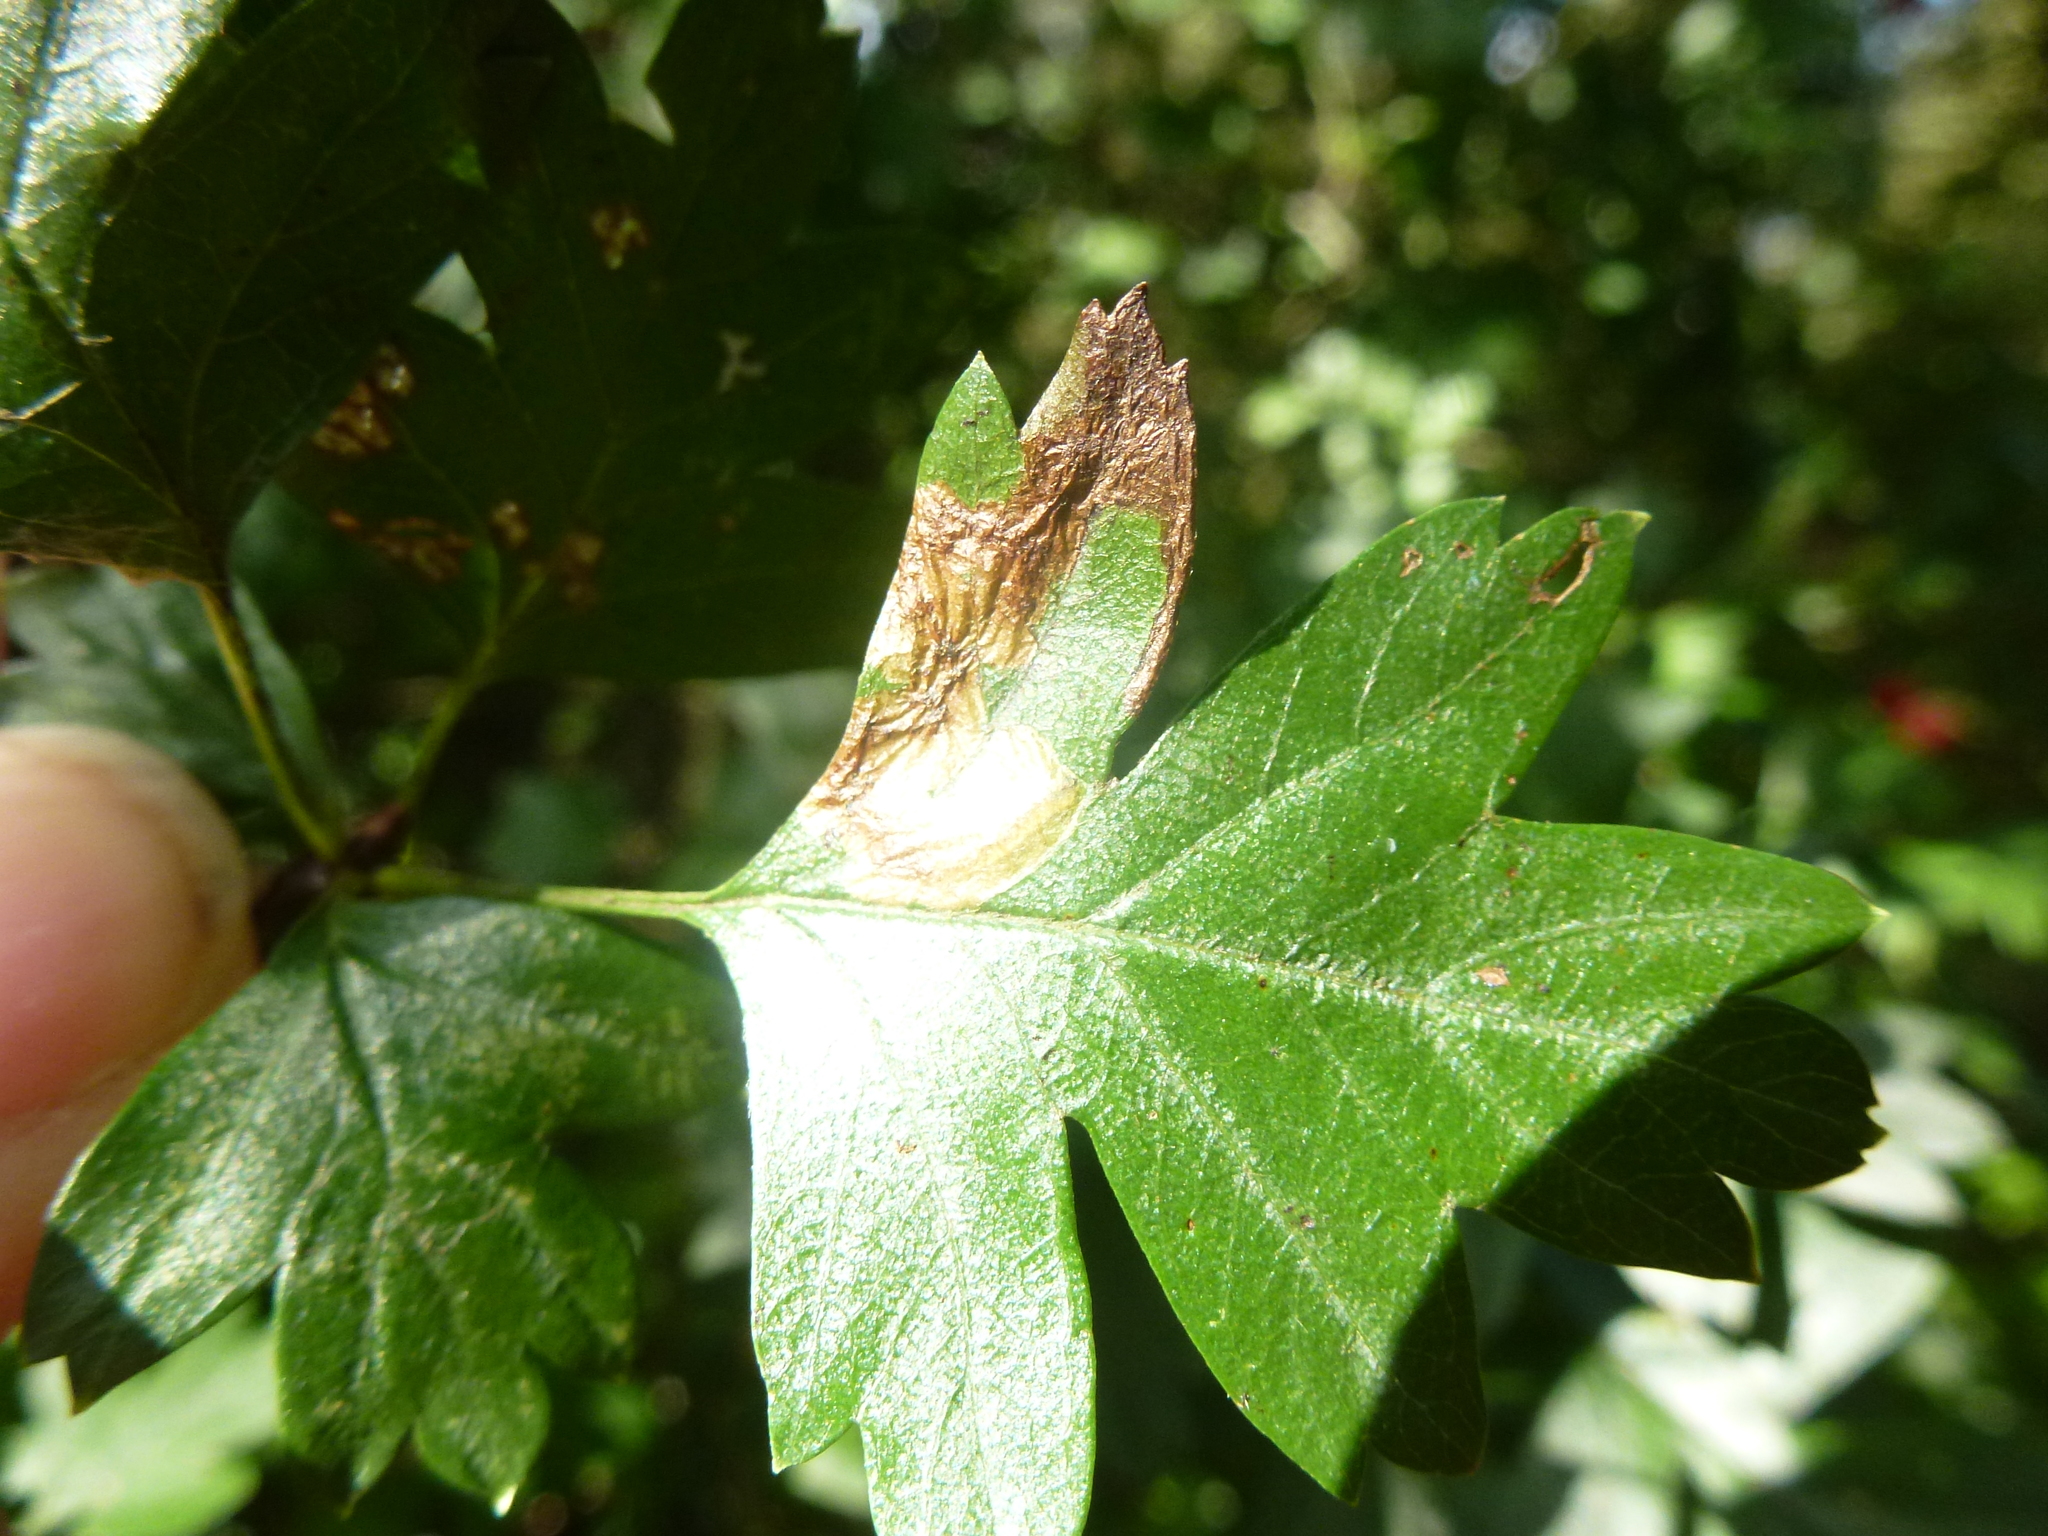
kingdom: Animalia
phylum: Arthropoda
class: Insecta
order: Lepidoptera
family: Nepticulidae
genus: Ectoedemia
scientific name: Ectoedemia atricollis
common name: Pinch-barred pigmy
